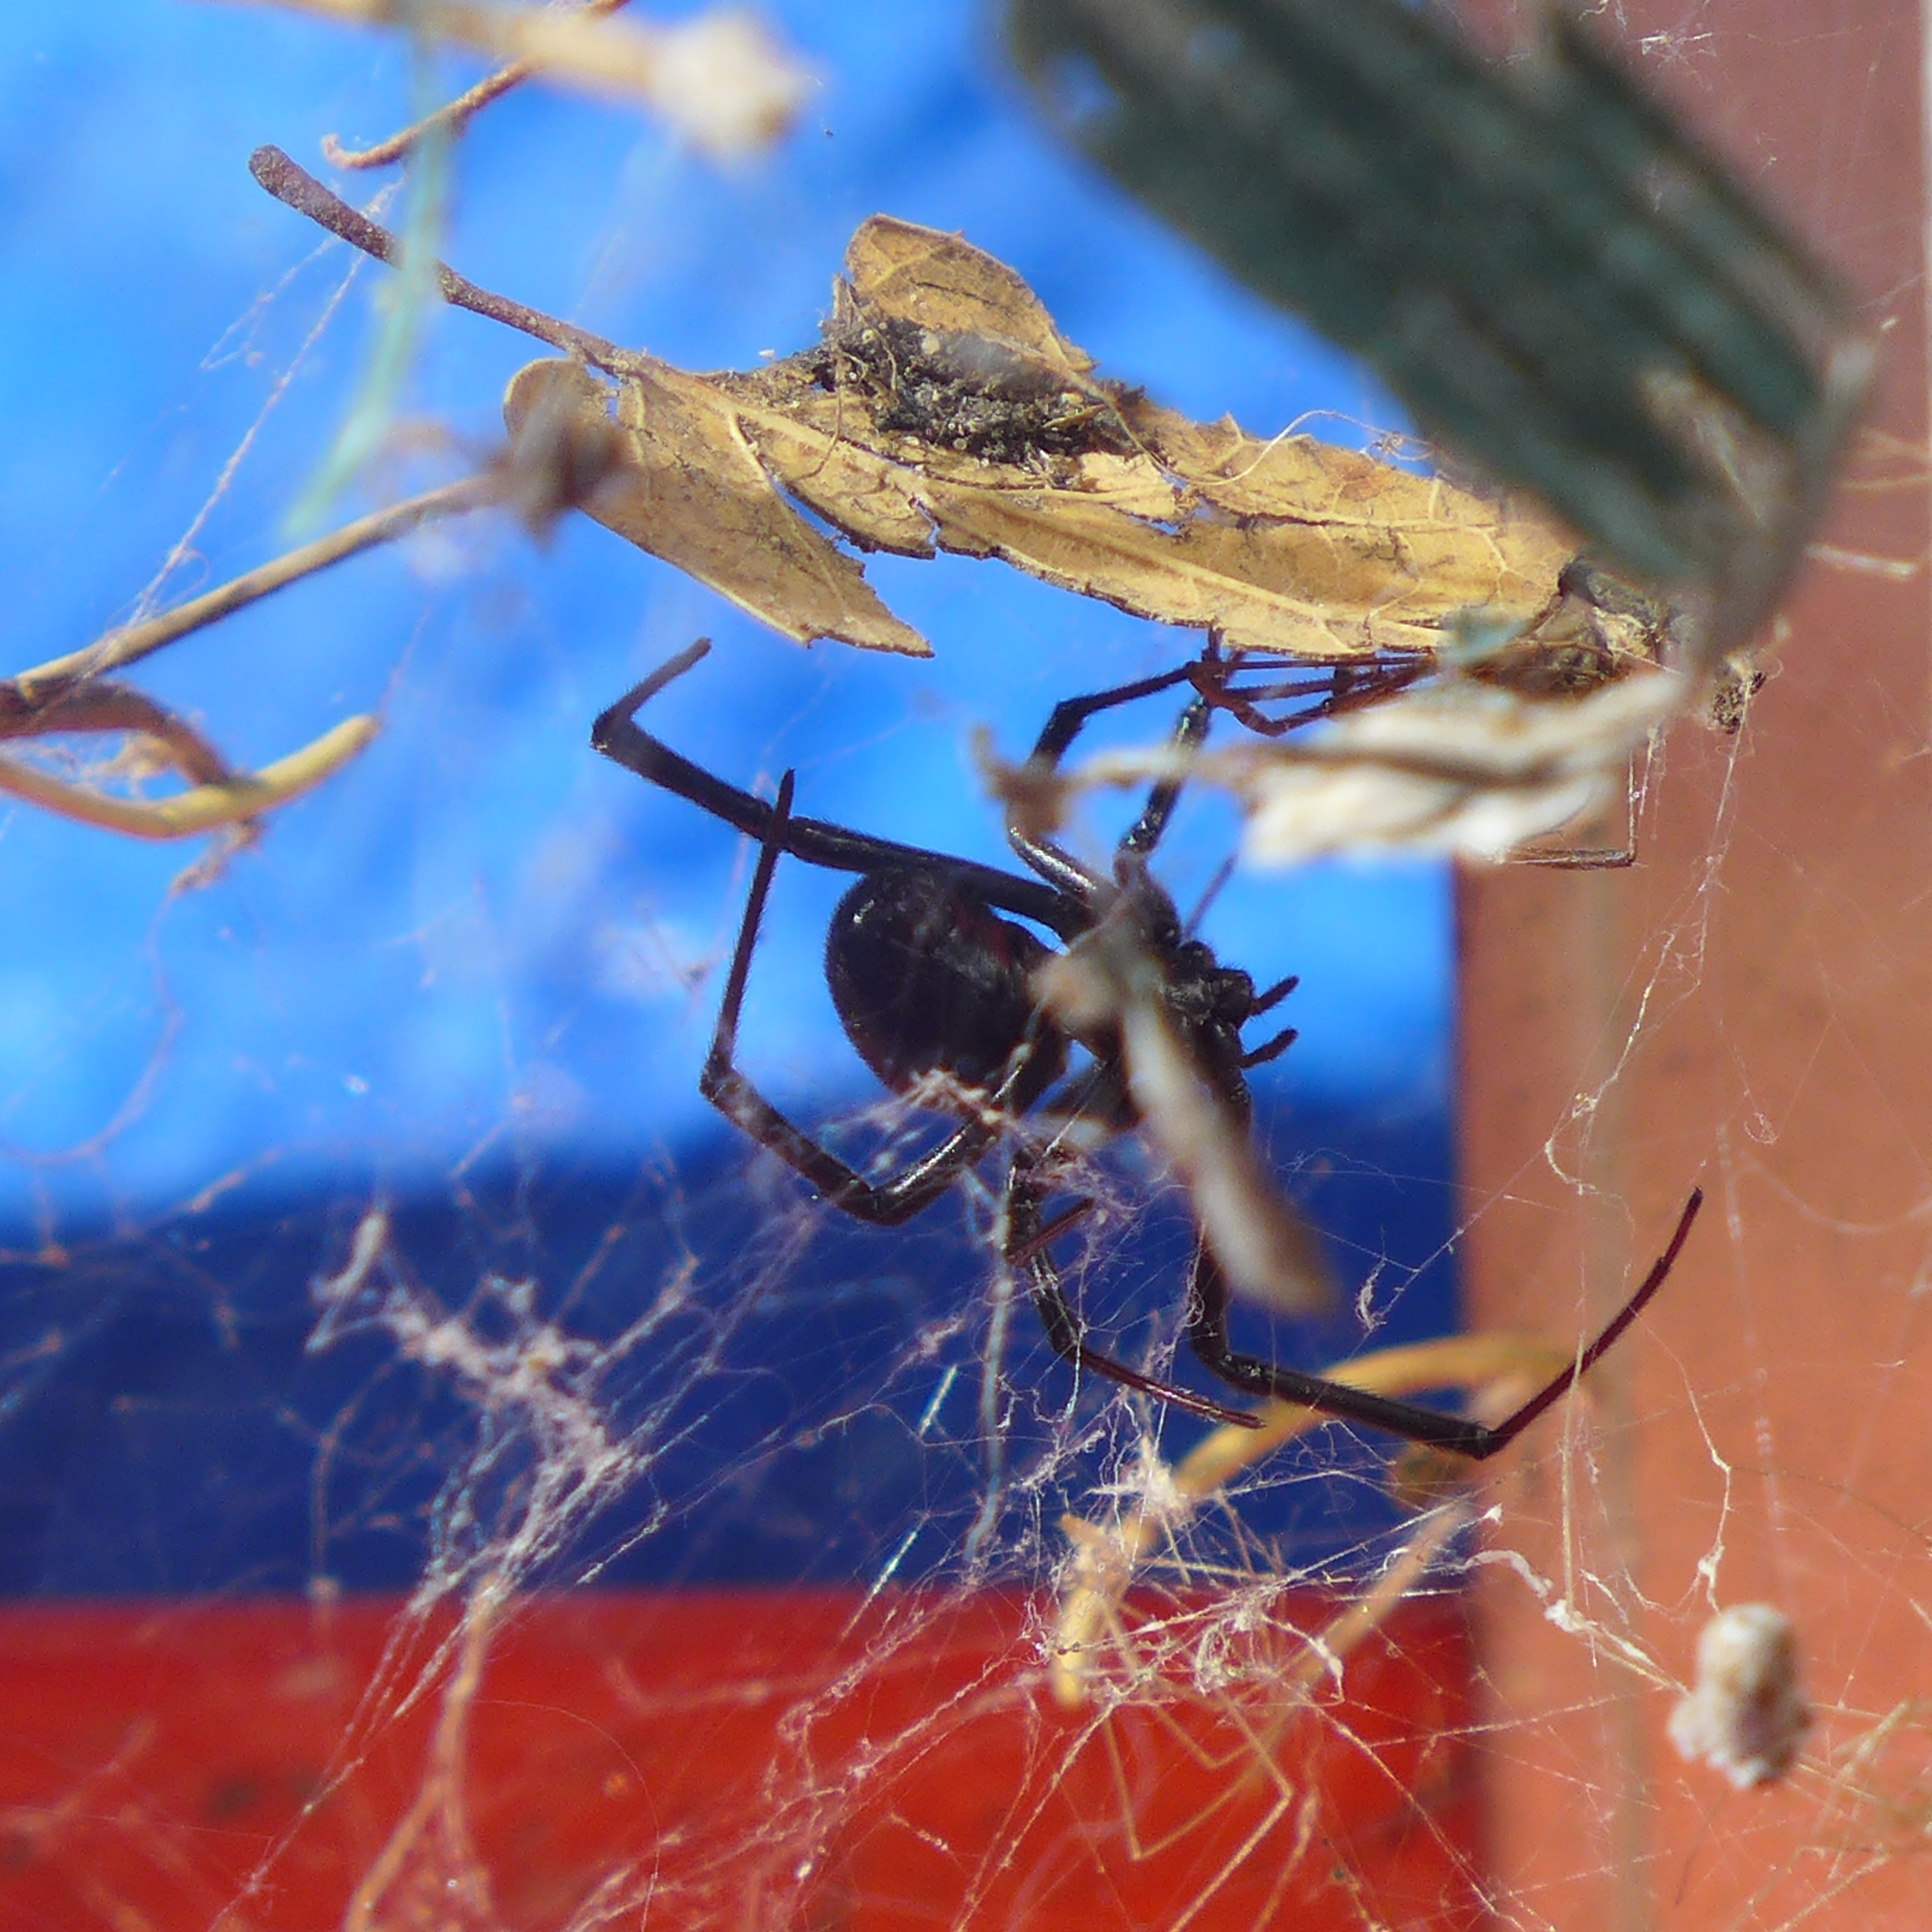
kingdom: Animalia
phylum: Arthropoda
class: Arachnida
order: Araneae
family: Theridiidae
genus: Latrodectus
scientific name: Latrodectus hesperus
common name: Western black widow
